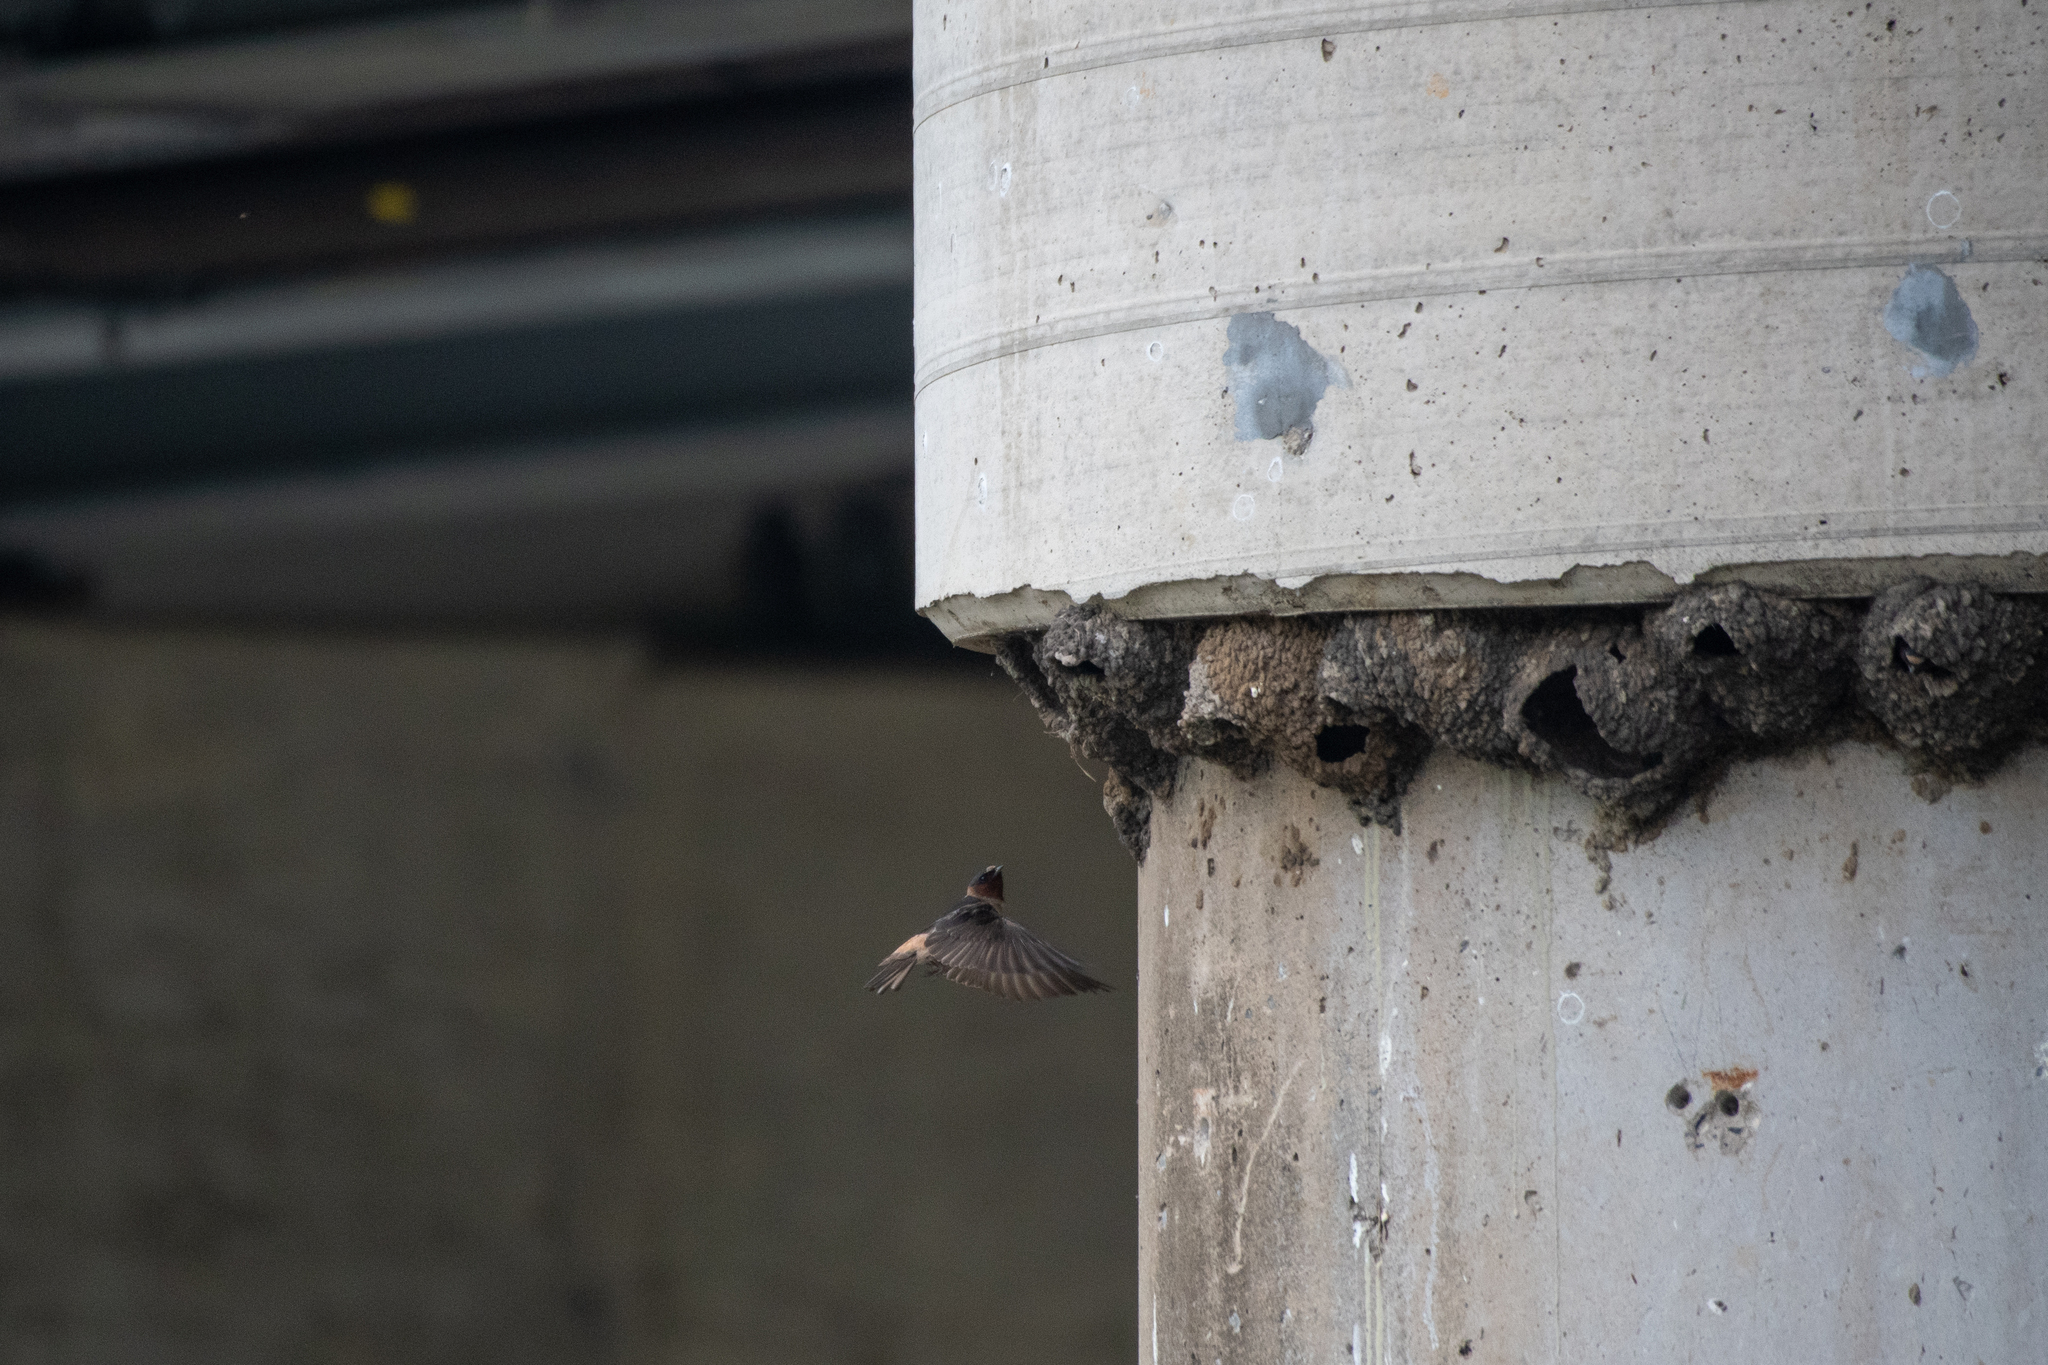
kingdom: Animalia
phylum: Chordata
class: Aves
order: Passeriformes
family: Hirundinidae
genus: Petrochelidon
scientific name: Petrochelidon pyrrhonota
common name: American cliff swallow
